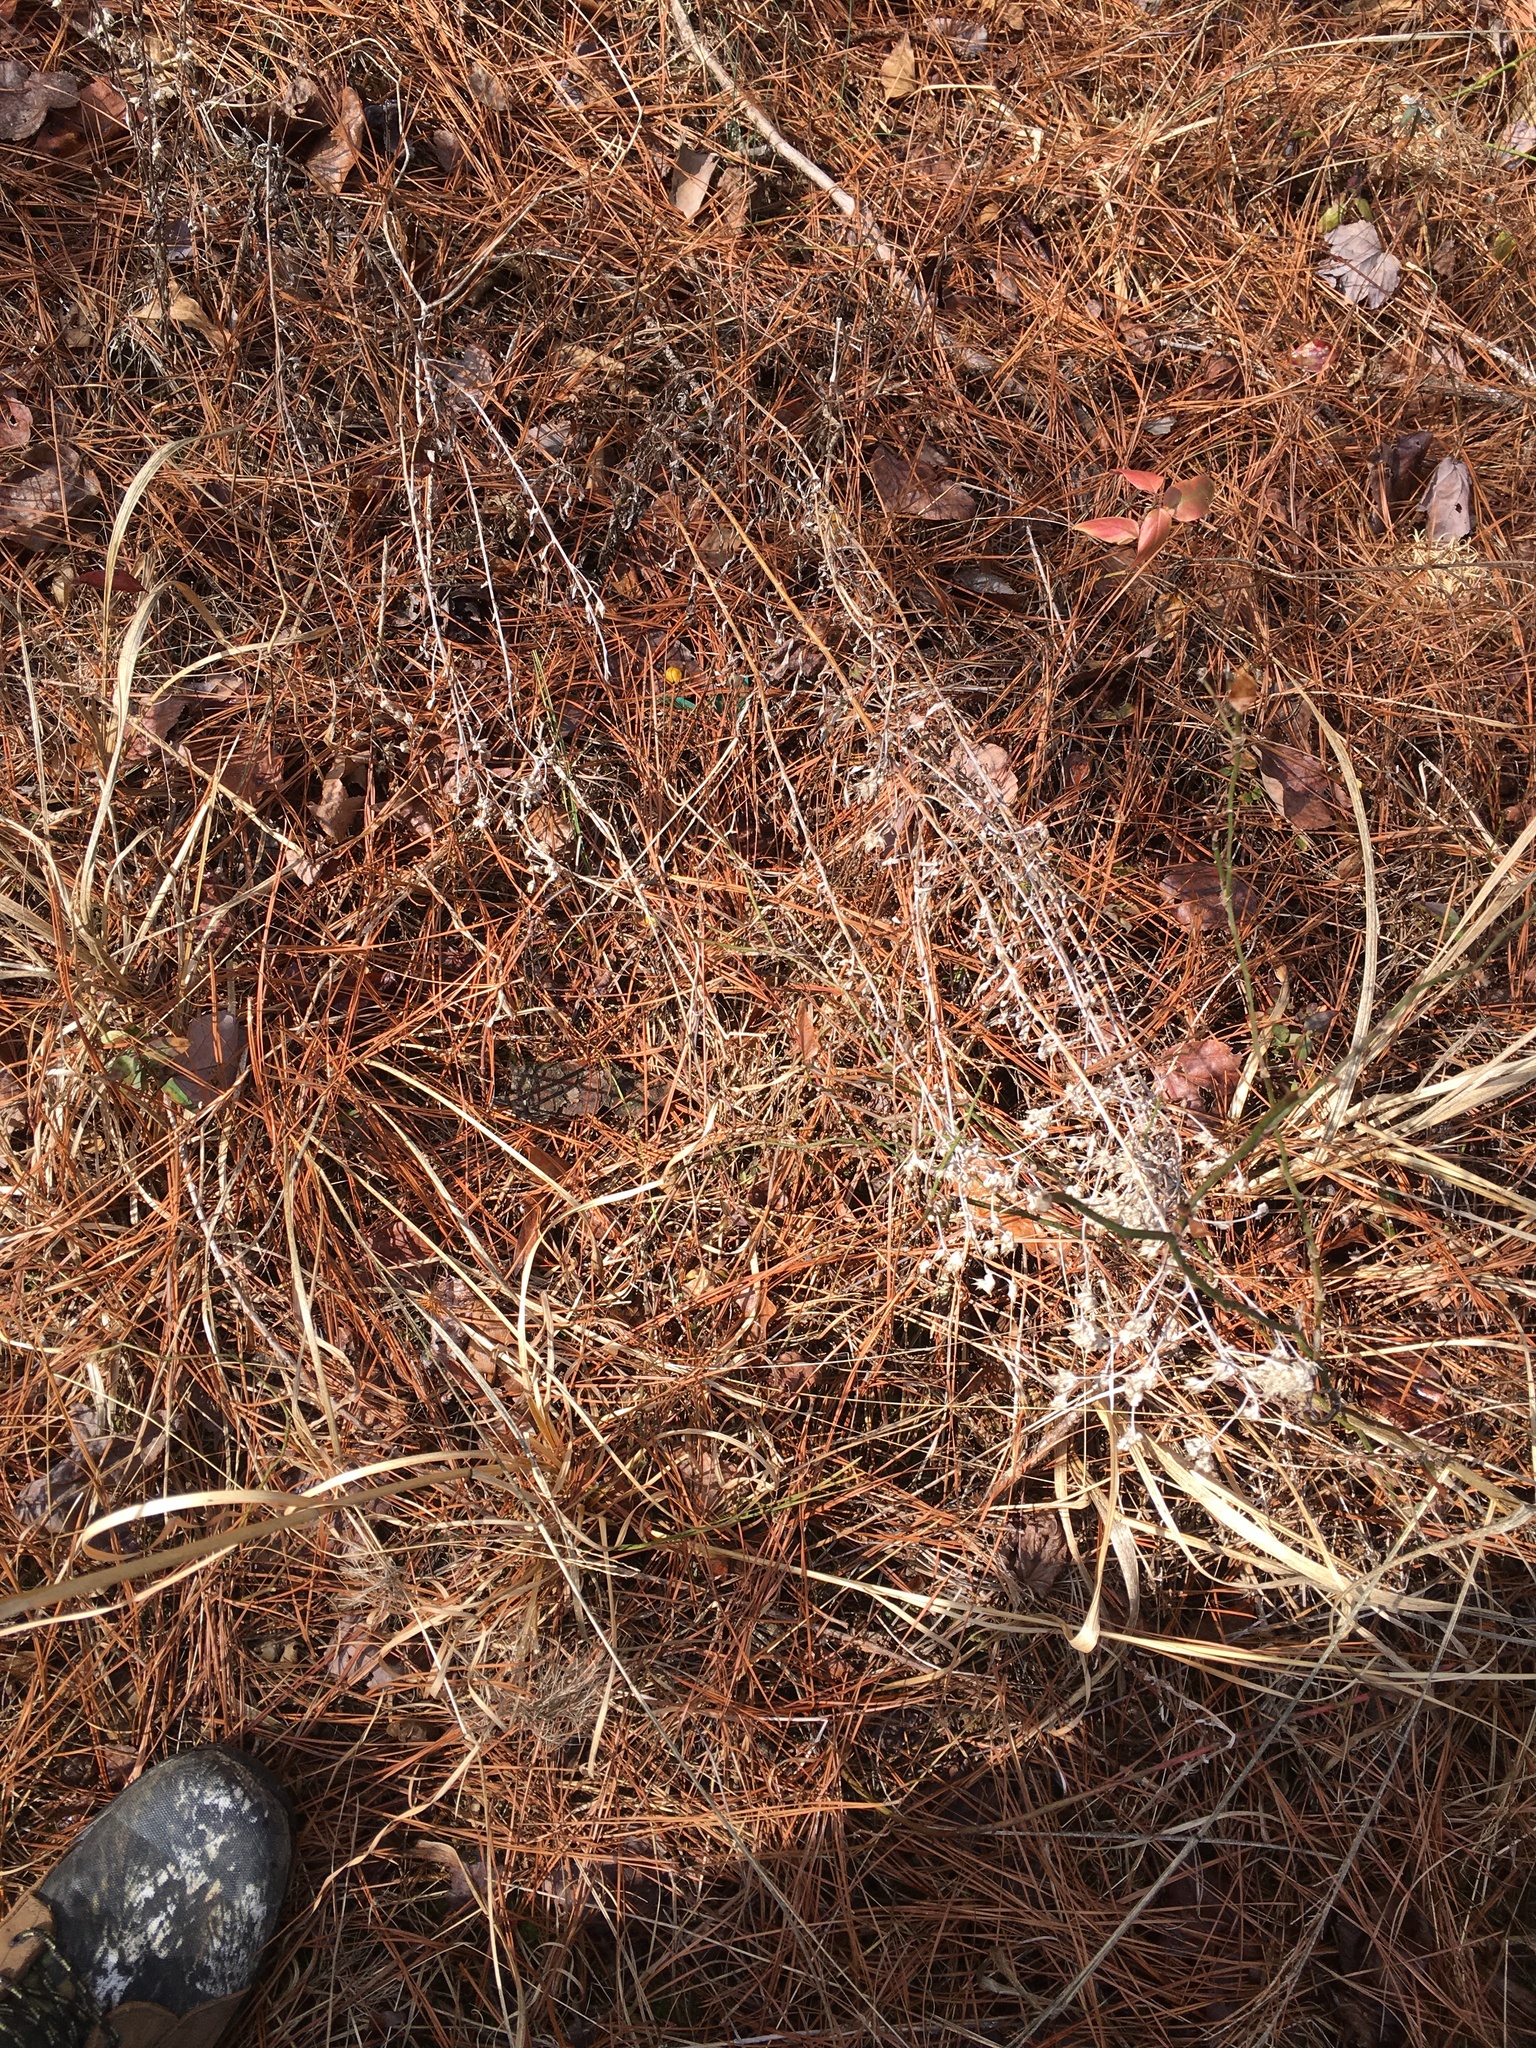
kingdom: Plantae
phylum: Tracheophyta
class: Magnoliopsida
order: Asterales
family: Asteraceae
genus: Pseudognaphalium
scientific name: Pseudognaphalium obtusifolium
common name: Eastern rabbit-tobacco
